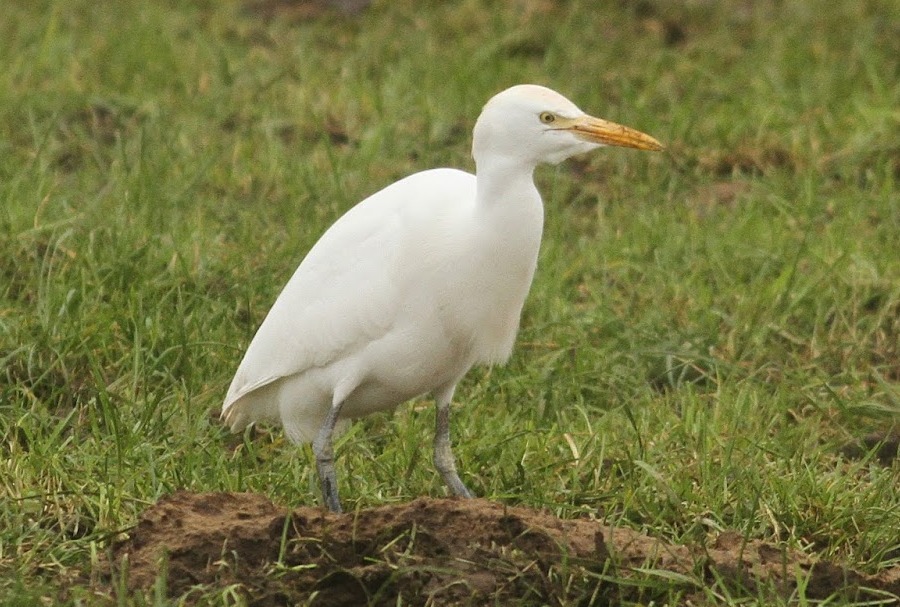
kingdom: Animalia
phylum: Chordata
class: Aves
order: Pelecaniformes
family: Ardeidae
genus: Bubulcus
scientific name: Bubulcus ibis
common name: Cattle egret
